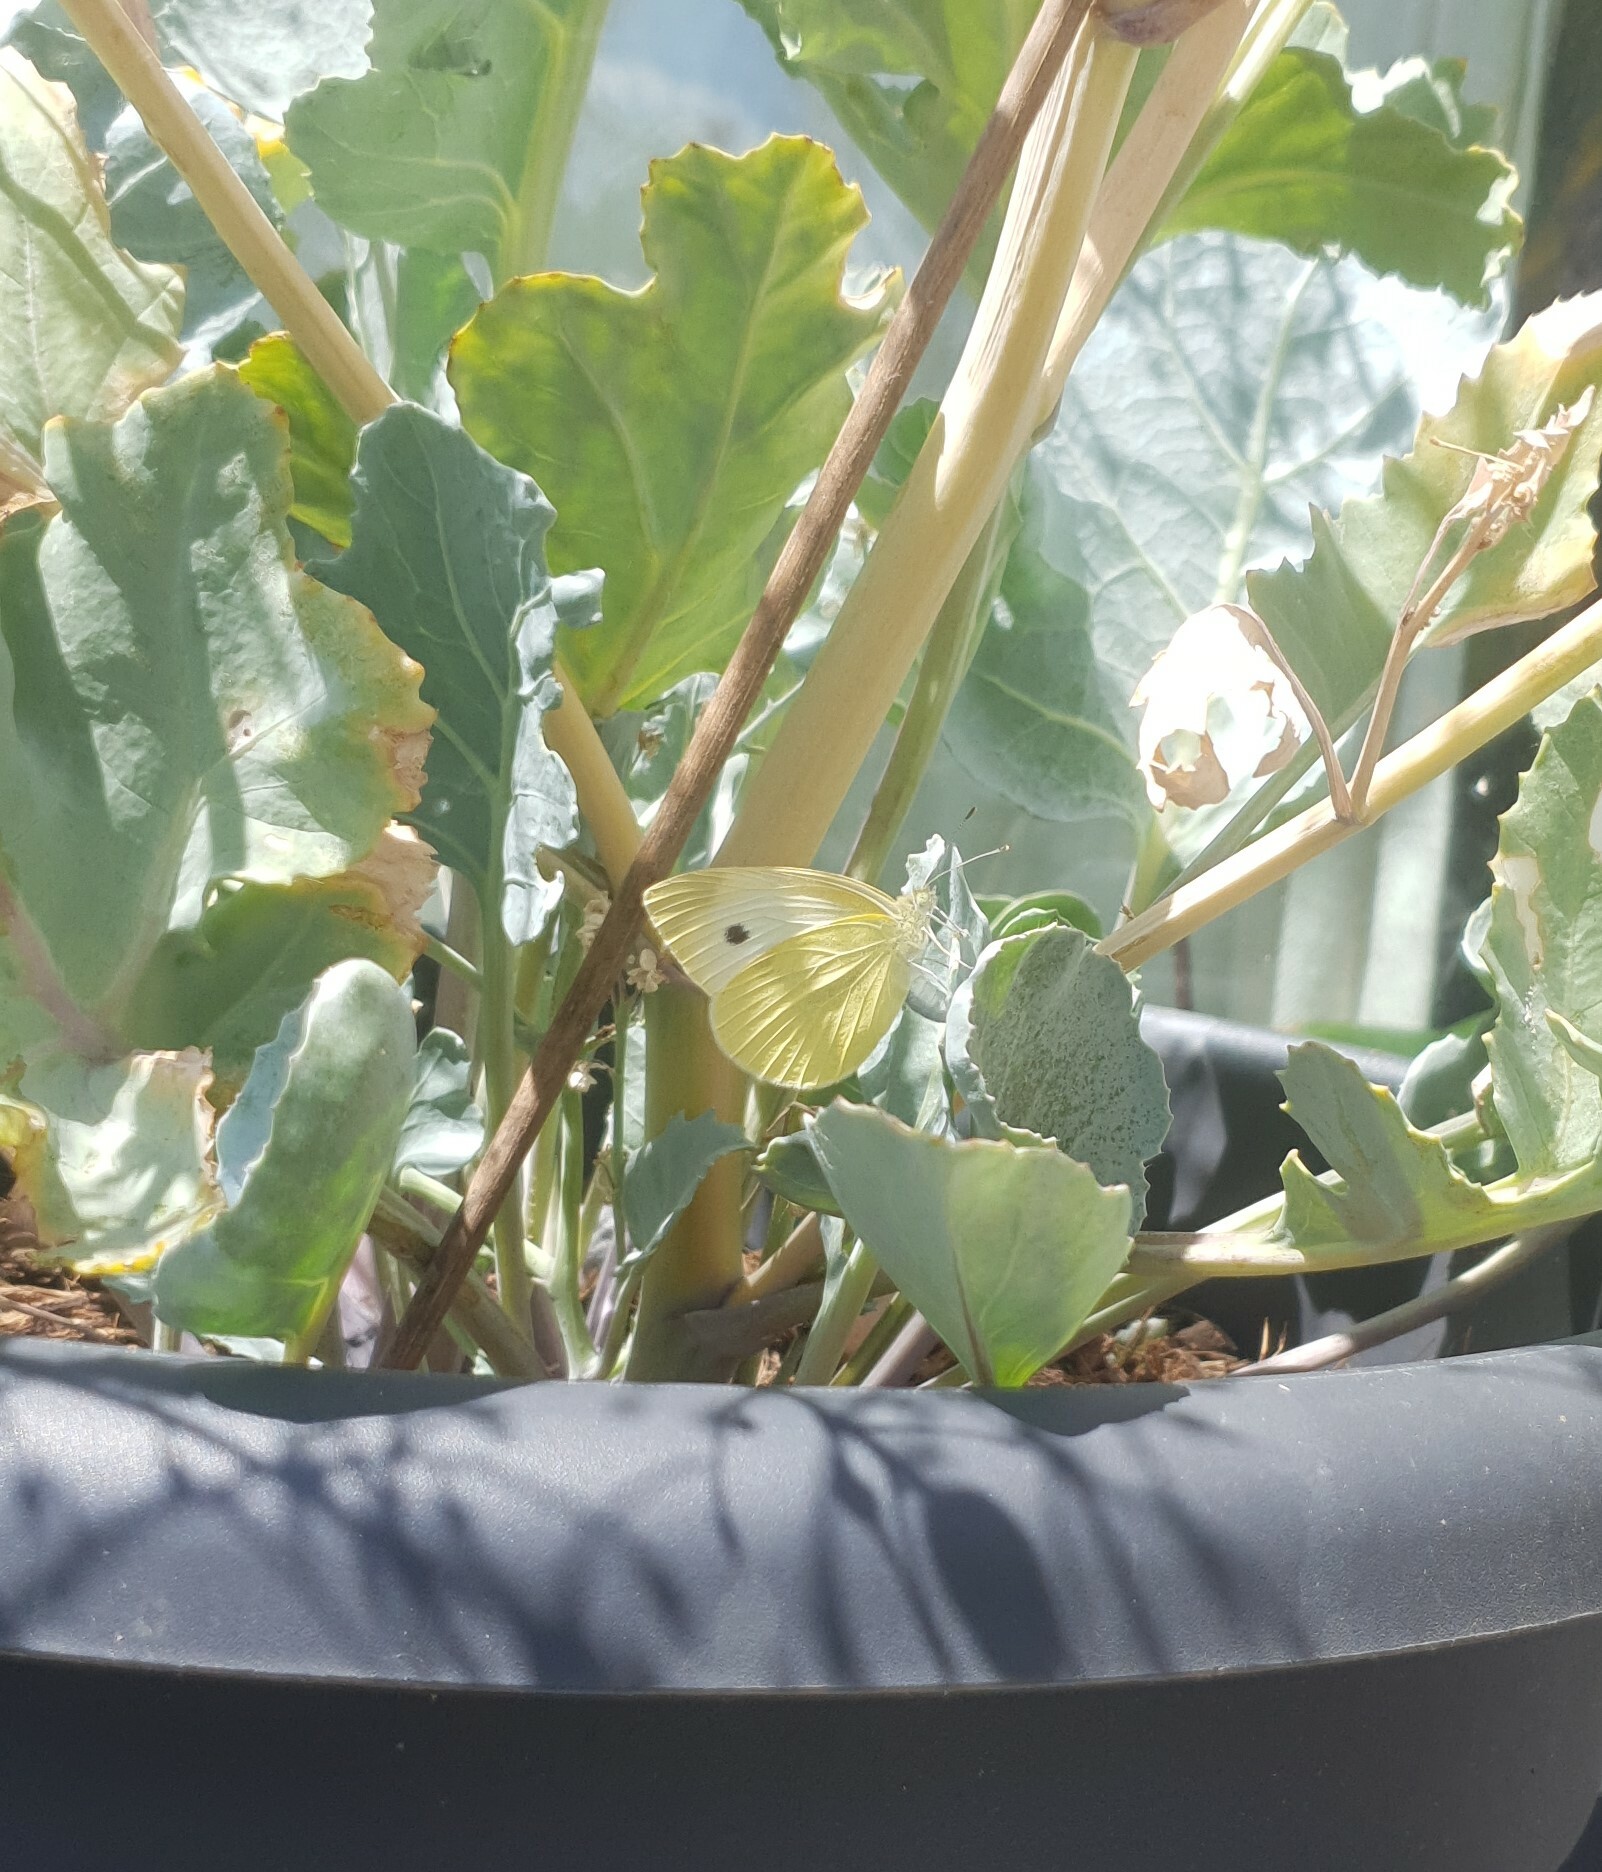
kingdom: Animalia
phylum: Arthropoda
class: Insecta
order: Lepidoptera
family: Pieridae
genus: Pieris
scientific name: Pieris rapae
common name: Small white
